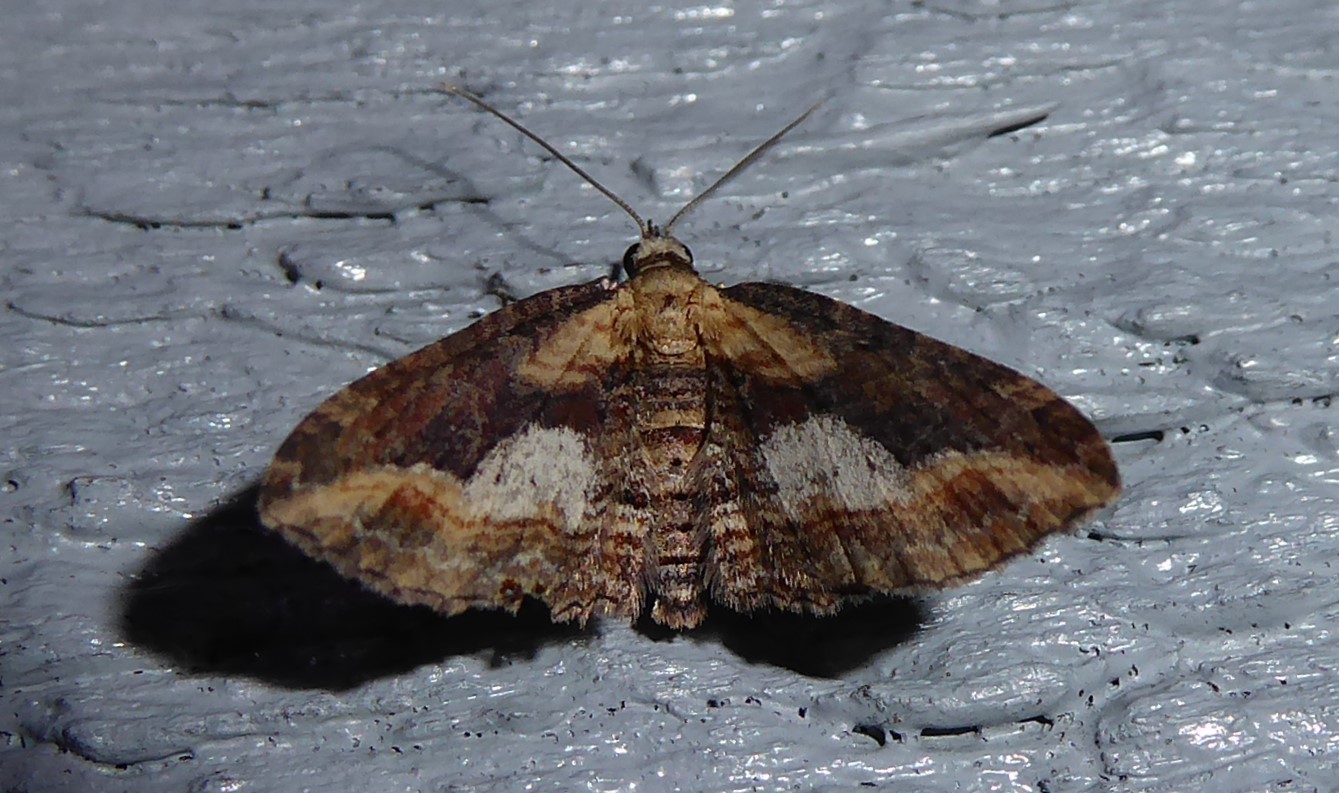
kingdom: Animalia
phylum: Arthropoda
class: Insecta
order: Lepidoptera
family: Geometridae
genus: Chloroclystis
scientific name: Chloroclystis filata
